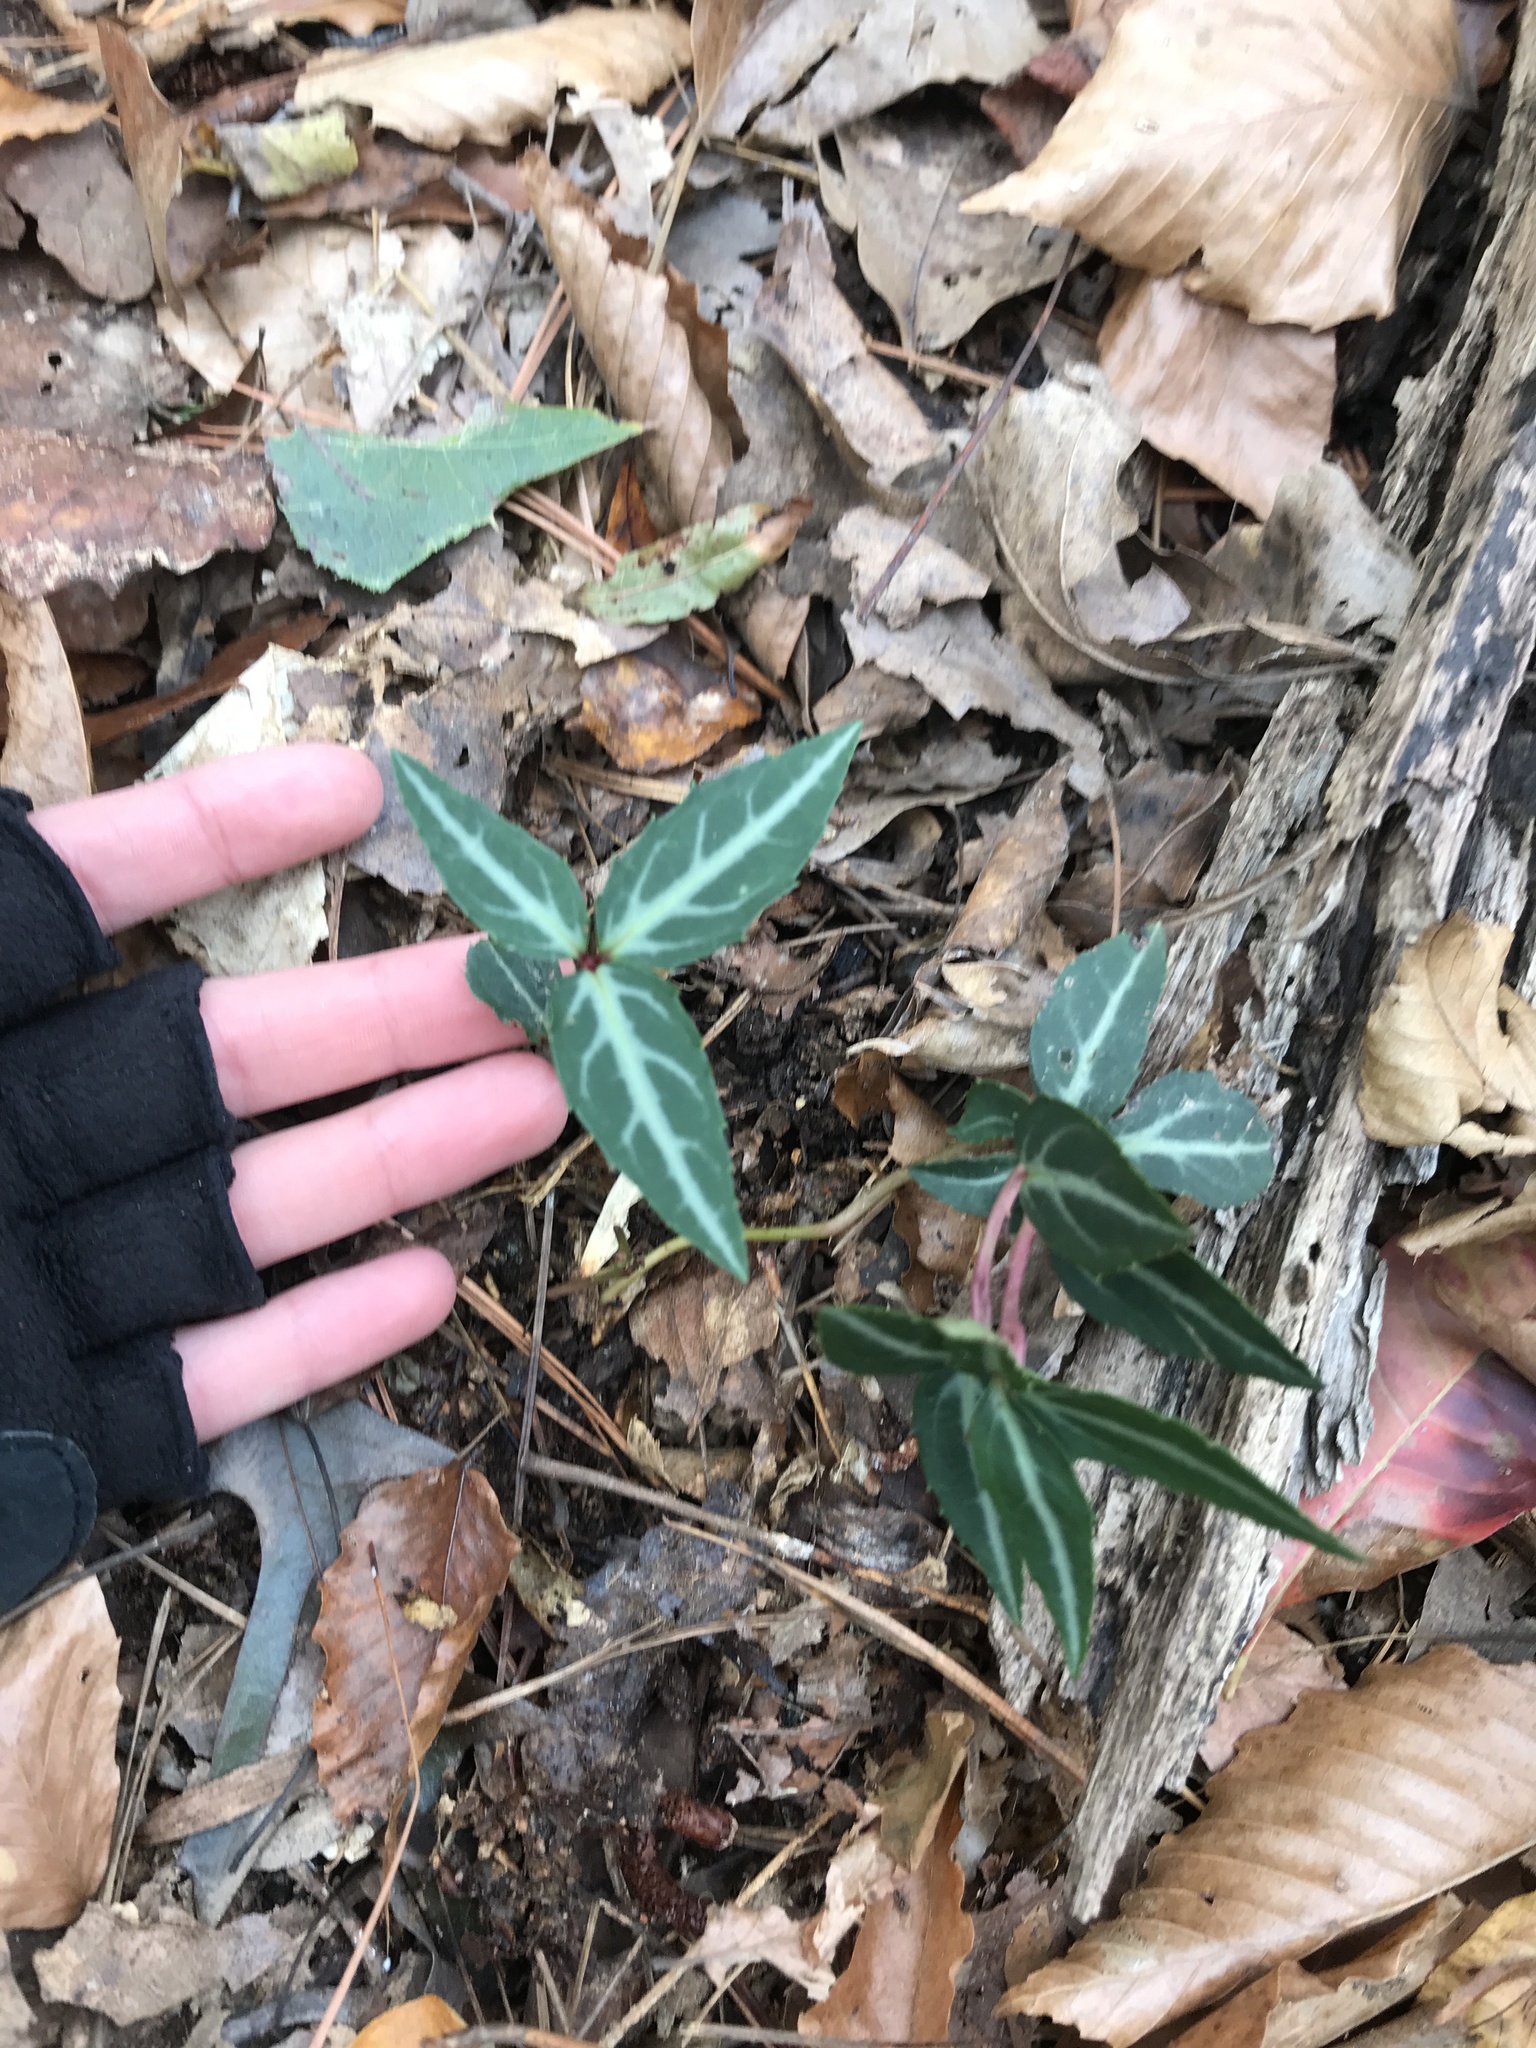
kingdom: Plantae
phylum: Tracheophyta
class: Magnoliopsida
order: Ericales
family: Ericaceae
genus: Chimaphila
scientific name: Chimaphila maculata
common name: Spotted pipsissewa
